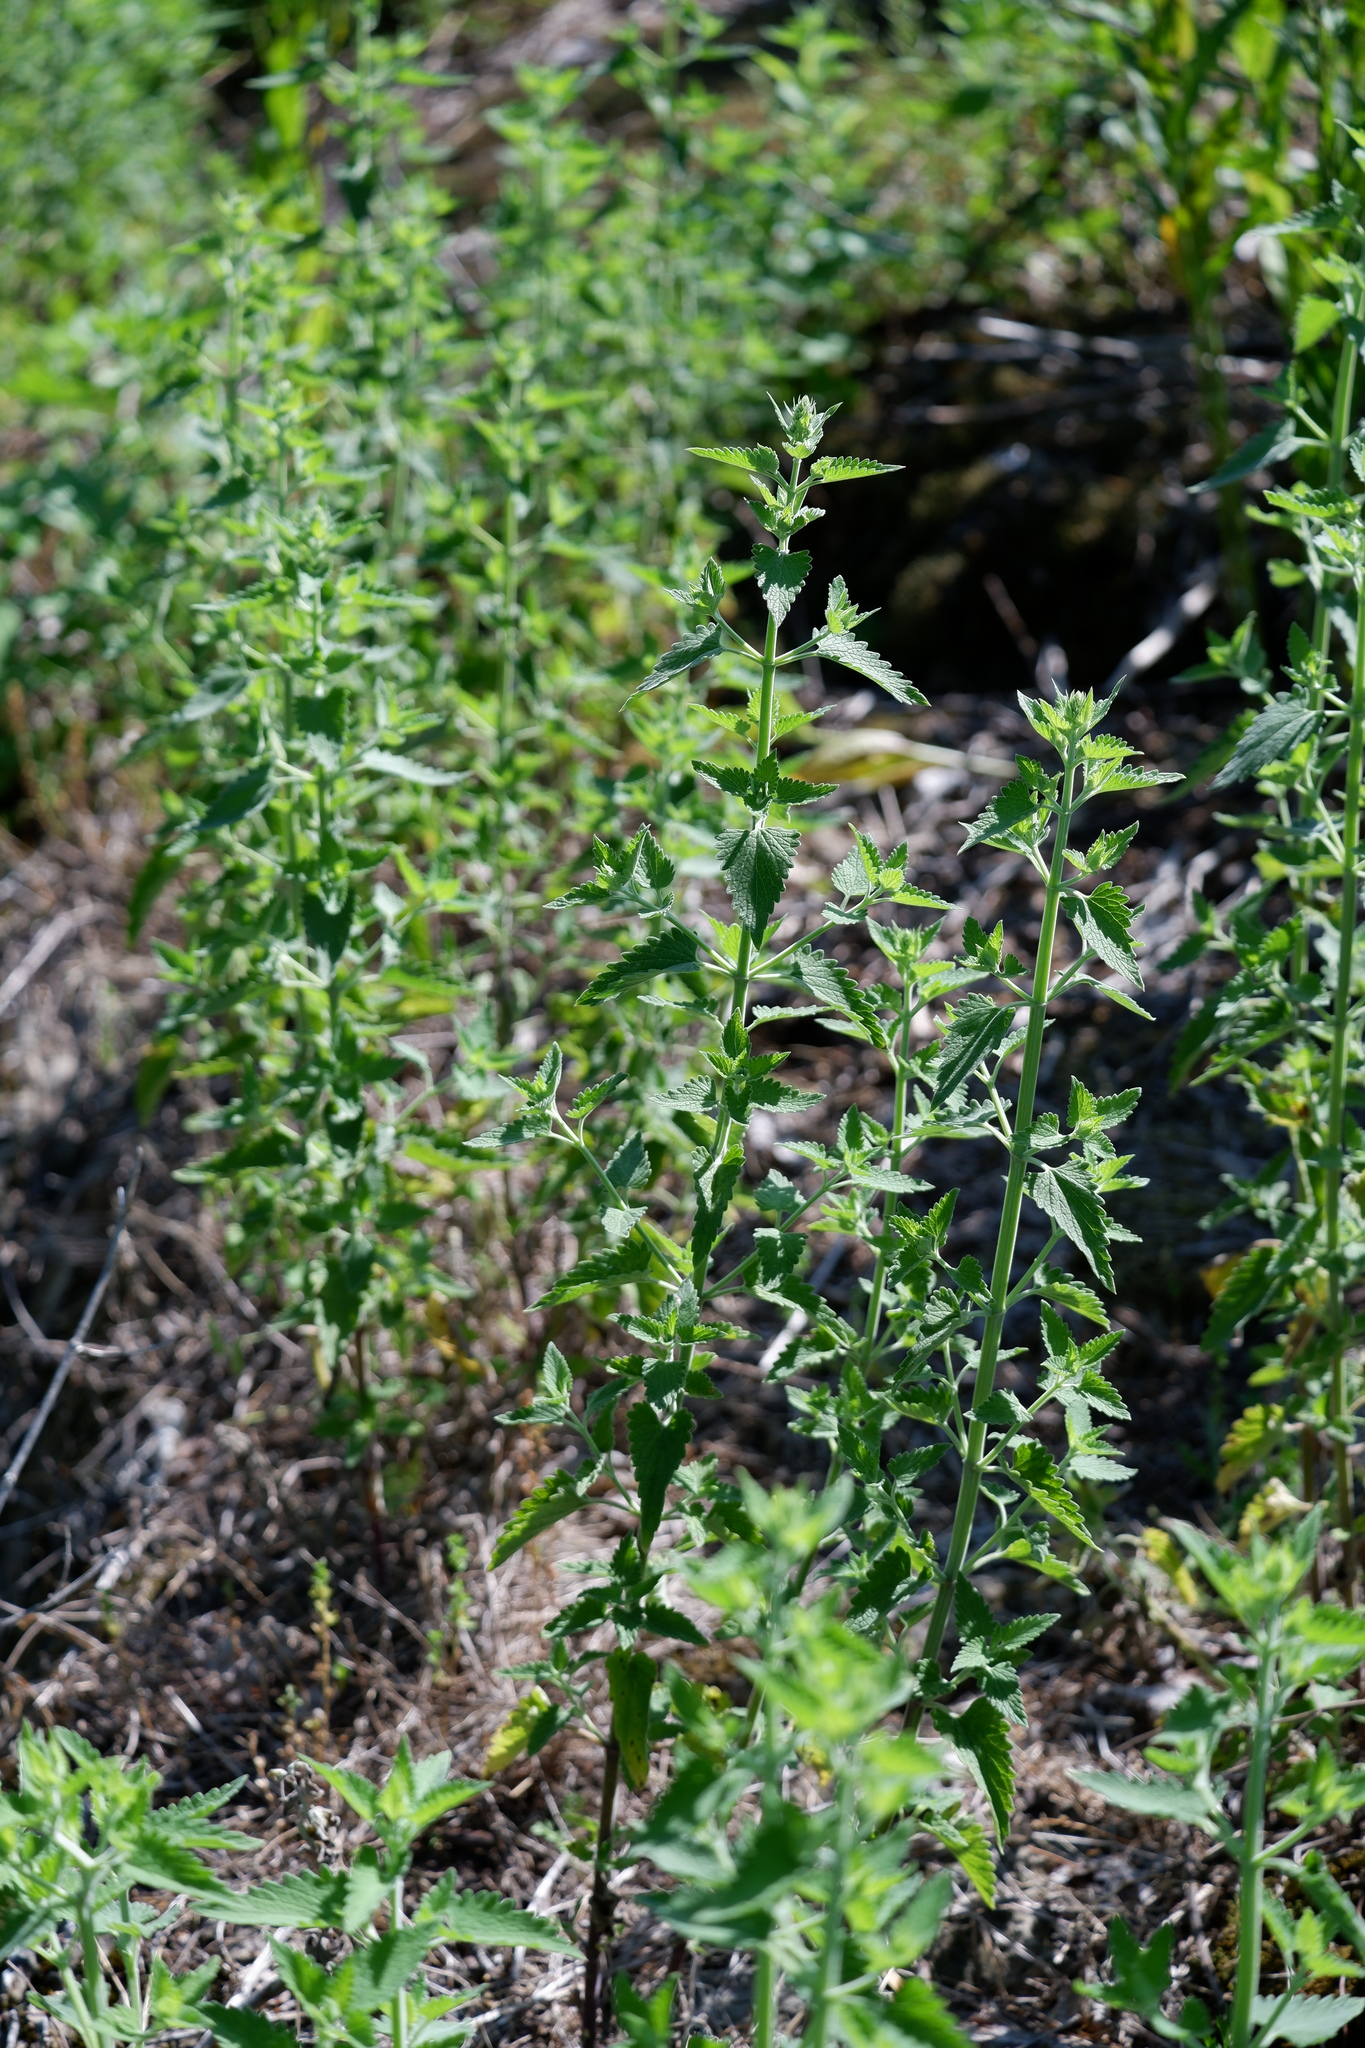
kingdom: Plantae
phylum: Tracheophyta
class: Magnoliopsida
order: Lamiales
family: Lamiaceae
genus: Nepeta
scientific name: Nepeta cataria
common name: Catnip
